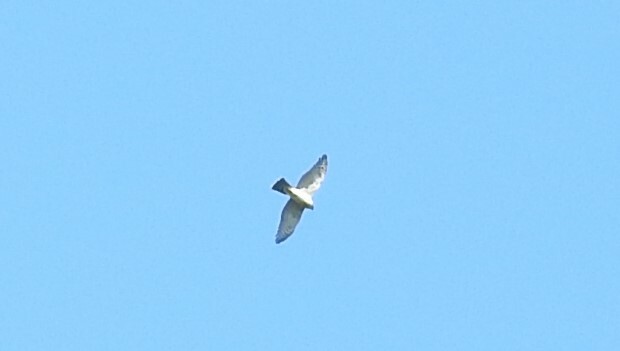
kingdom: Animalia
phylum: Chordata
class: Aves
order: Accipitriformes
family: Accipitridae
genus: Accipiter
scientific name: Accipiter nisus
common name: Eurasian sparrowhawk
